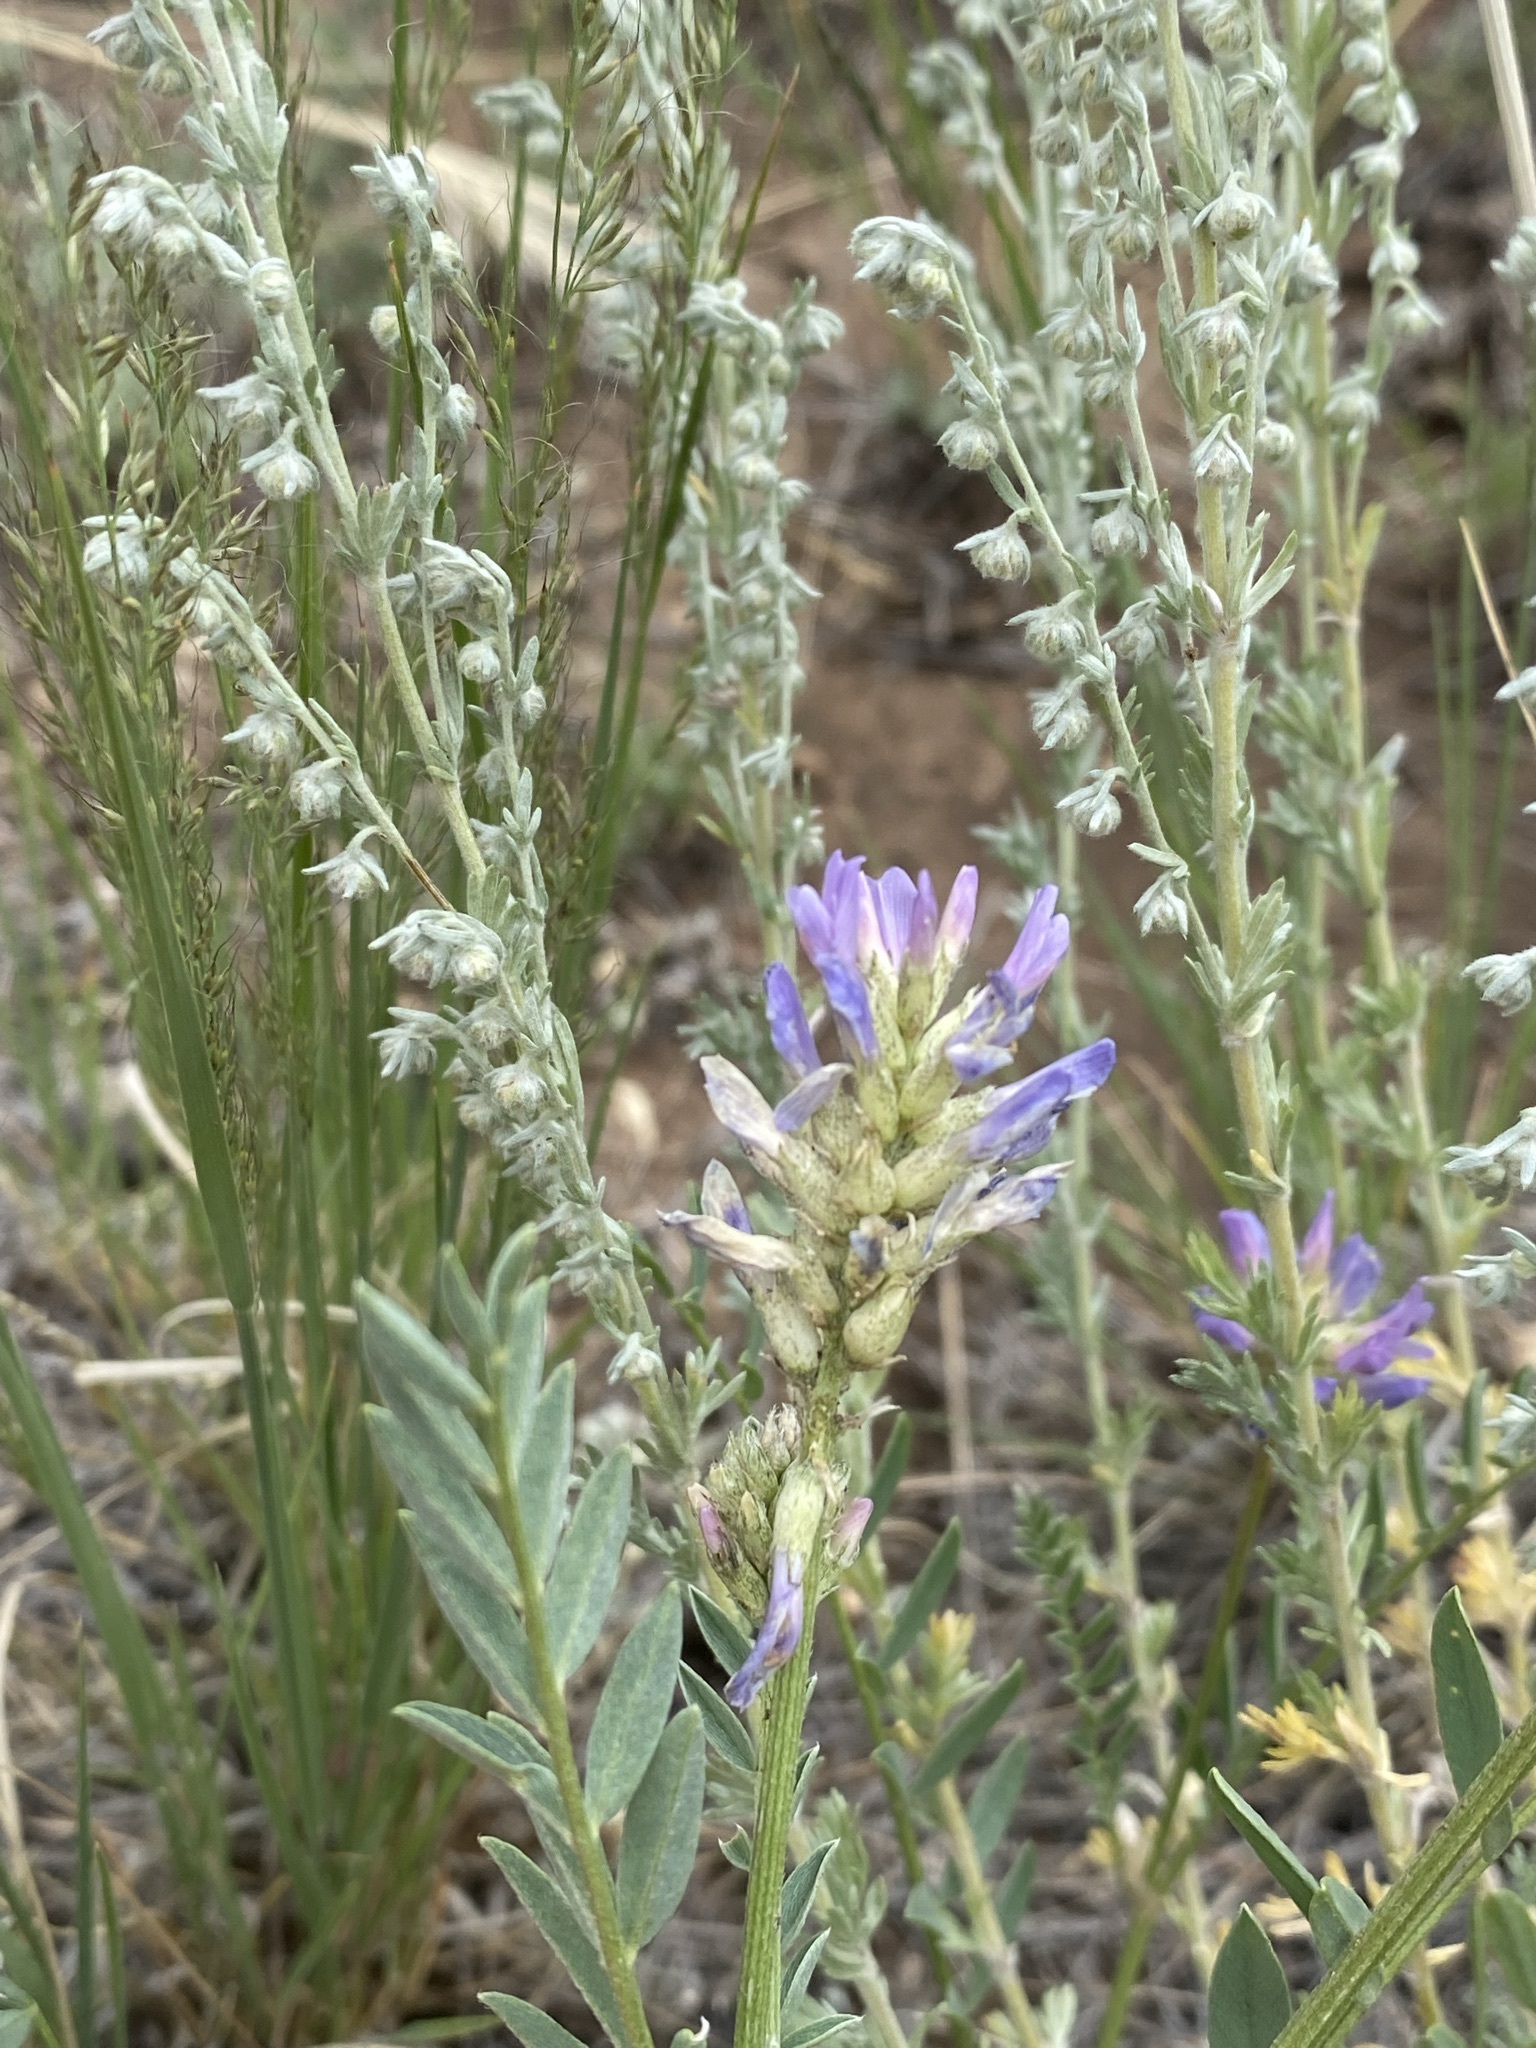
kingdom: Plantae
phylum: Tracheophyta
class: Magnoliopsida
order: Fabales
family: Fabaceae
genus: Astragalus
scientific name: Astragalus laxmannii
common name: Laxmann's milk-vetch
